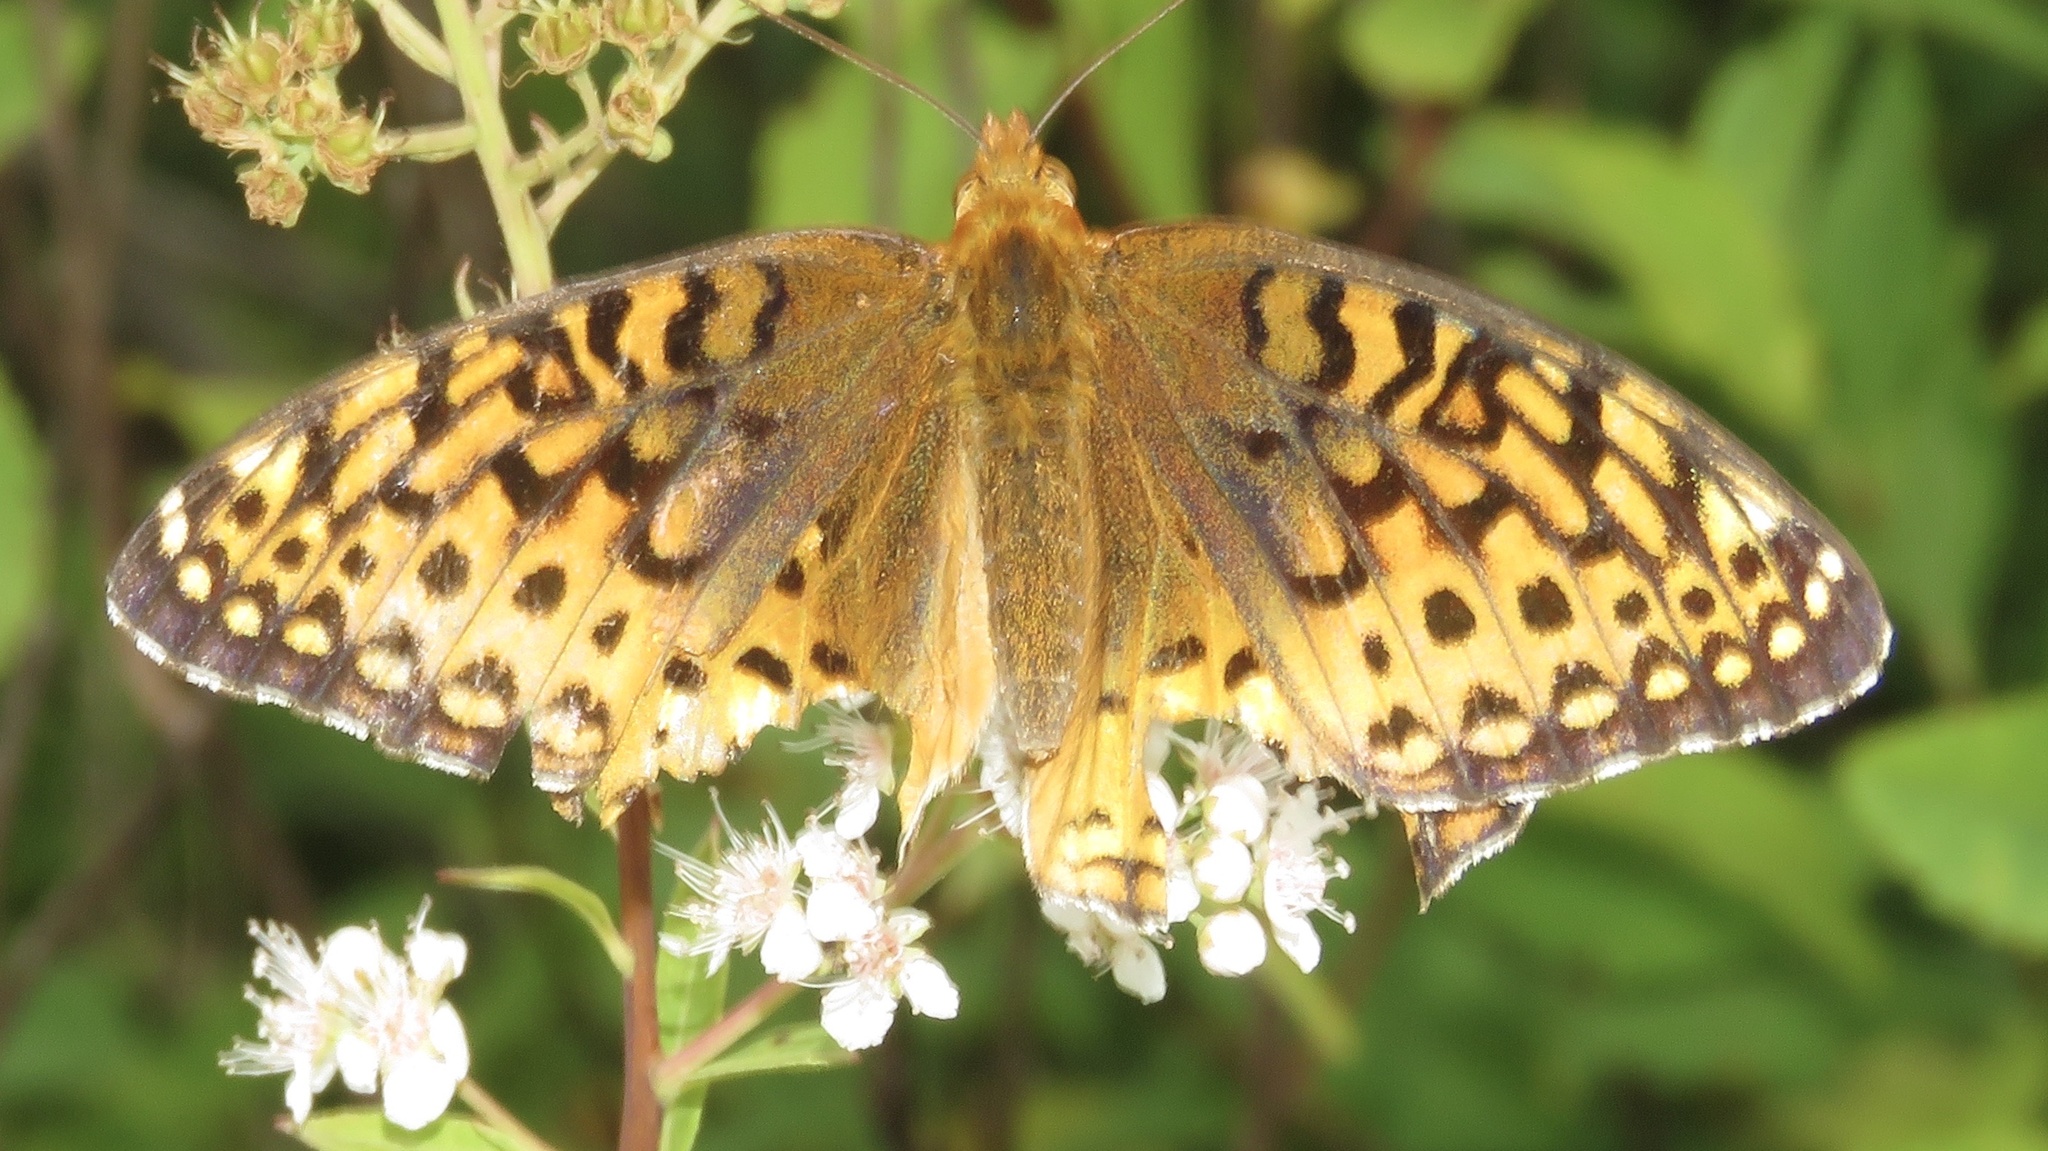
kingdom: Animalia
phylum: Arthropoda
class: Insecta
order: Lepidoptera
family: Nymphalidae
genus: Speyeria
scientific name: Speyeria cybele
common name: Great spangled fritillary
